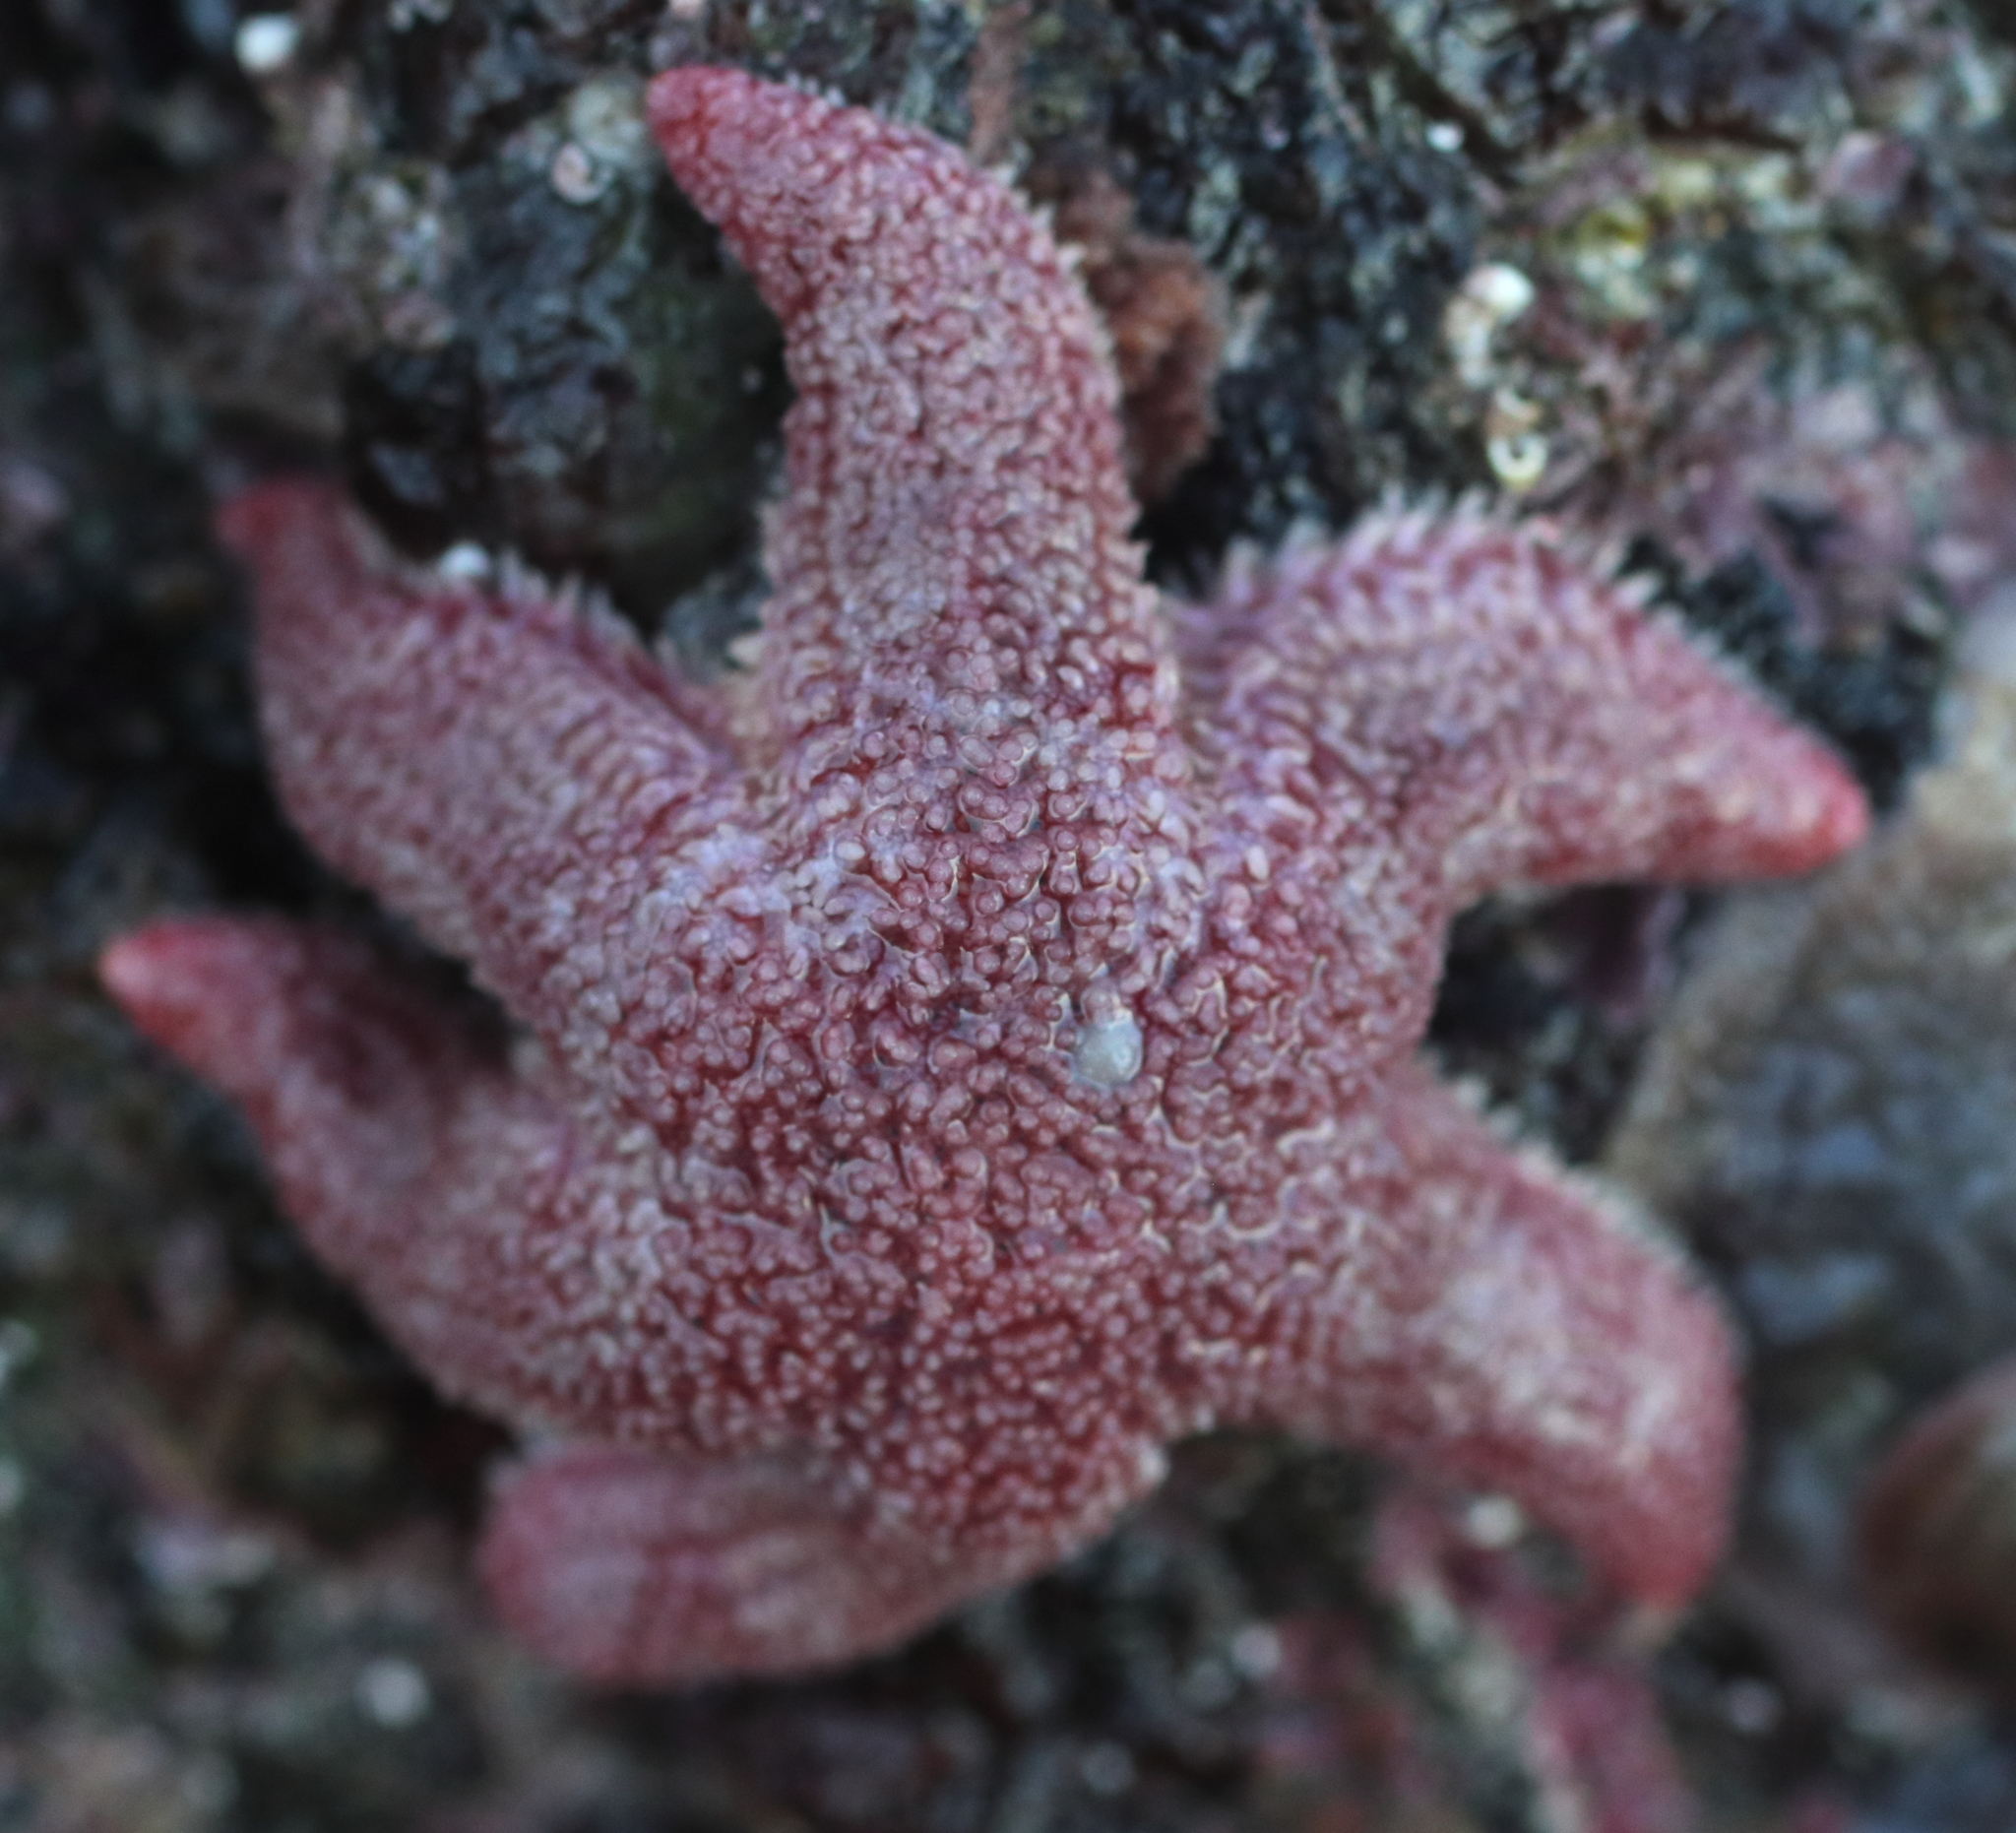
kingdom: Animalia
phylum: Echinodermata
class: Asteroidea
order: Forcipulatida
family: Asteriidae
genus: Leptasterias
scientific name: Leptasterias
